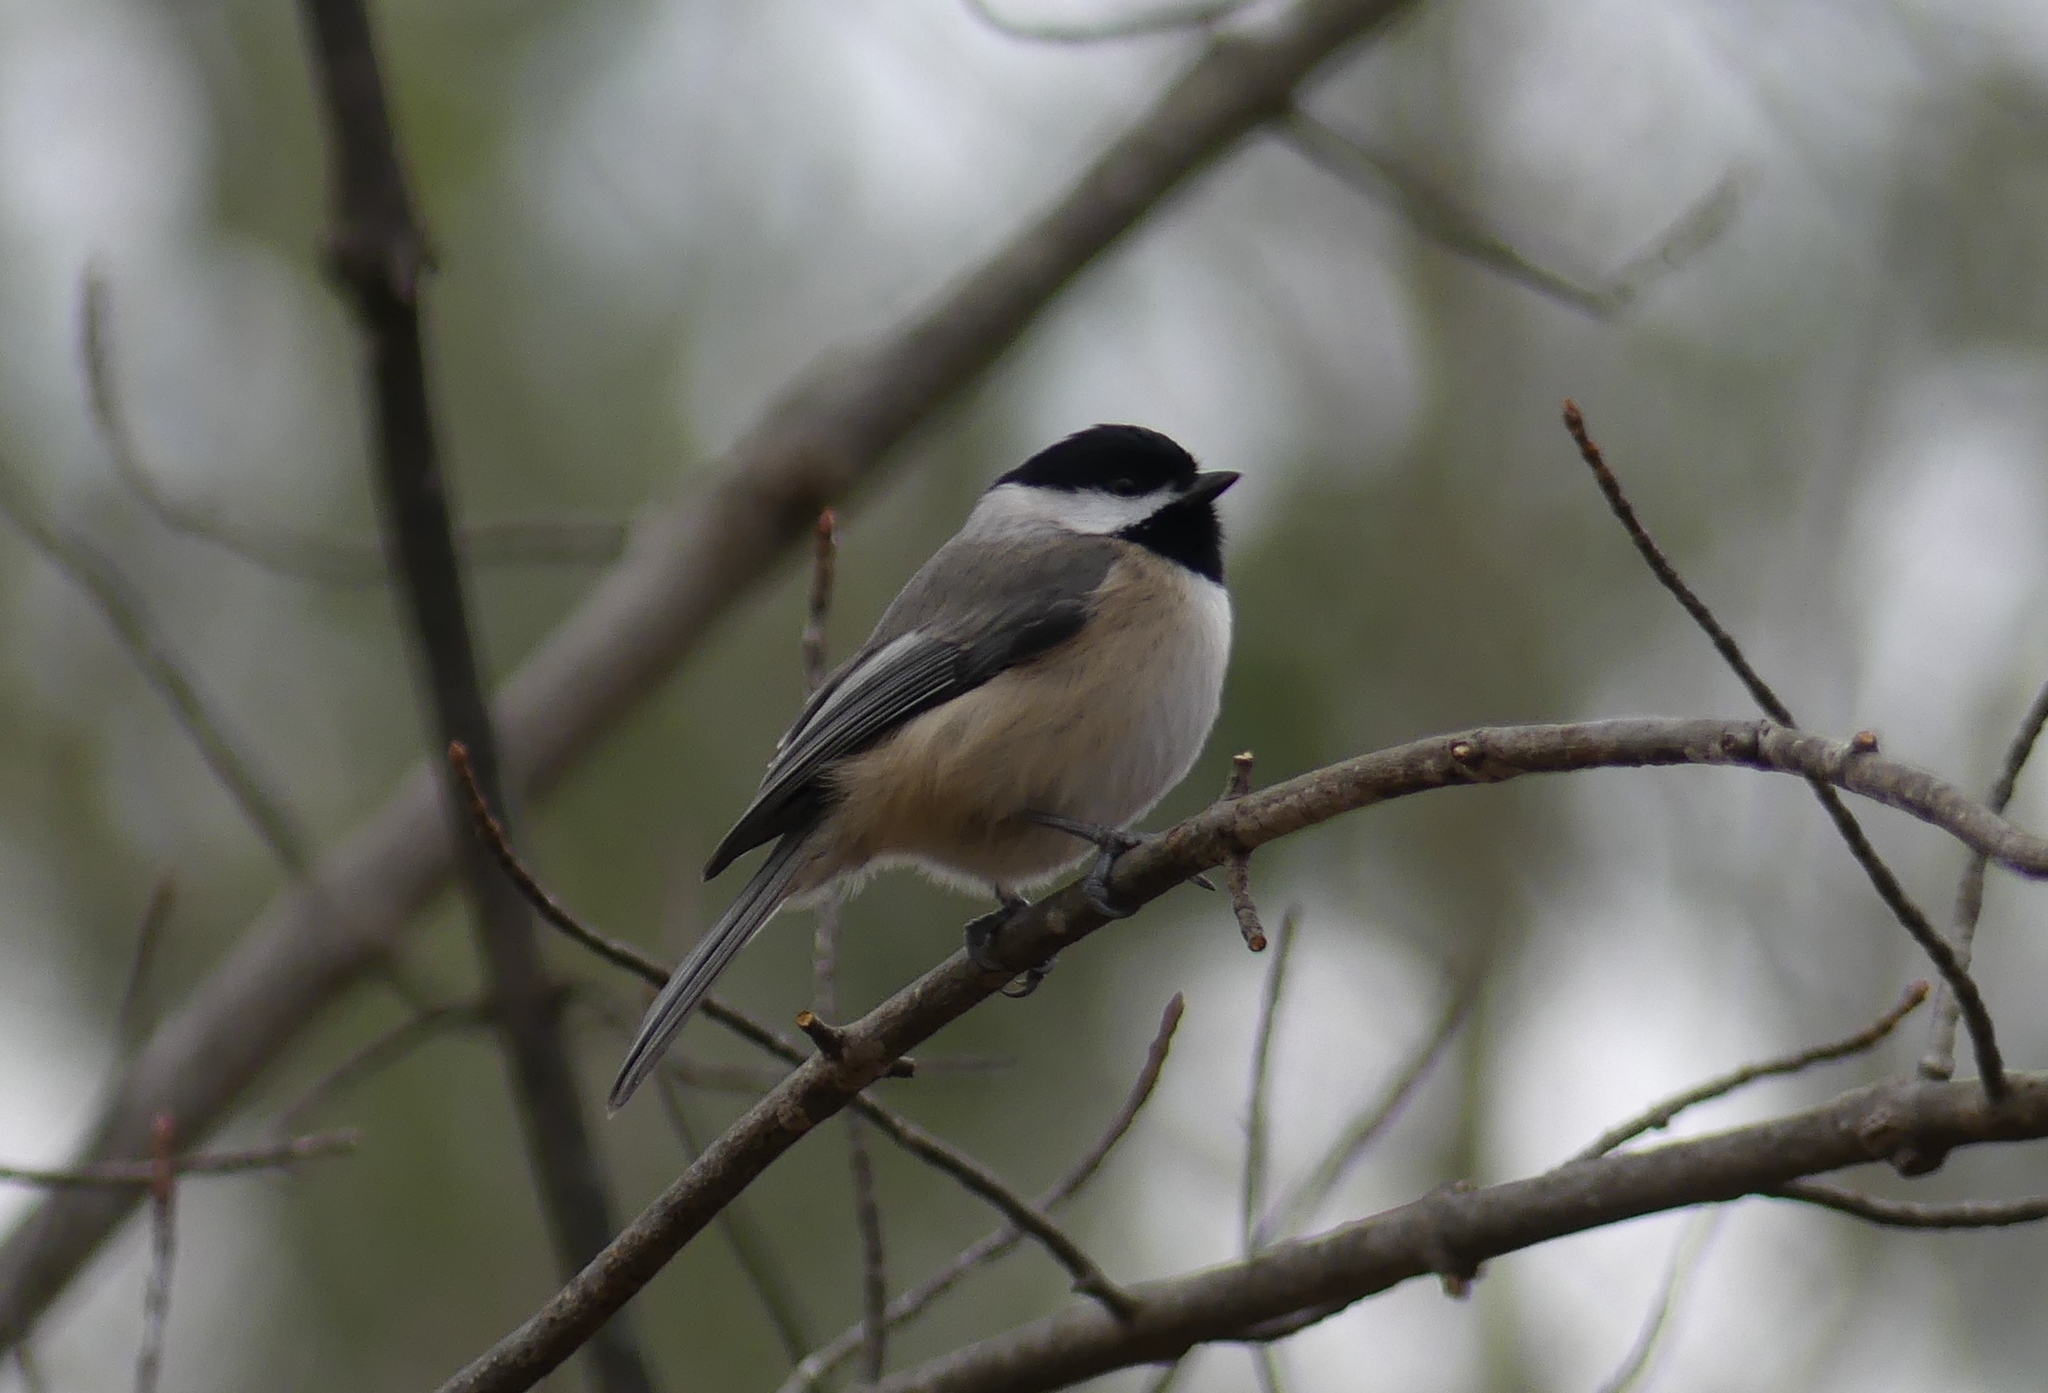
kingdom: Animalia
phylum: Chordata
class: Aves
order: Passeriformes
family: Paridae
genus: Poecile
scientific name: Poecile carolinensis
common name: Carolina chickadee
